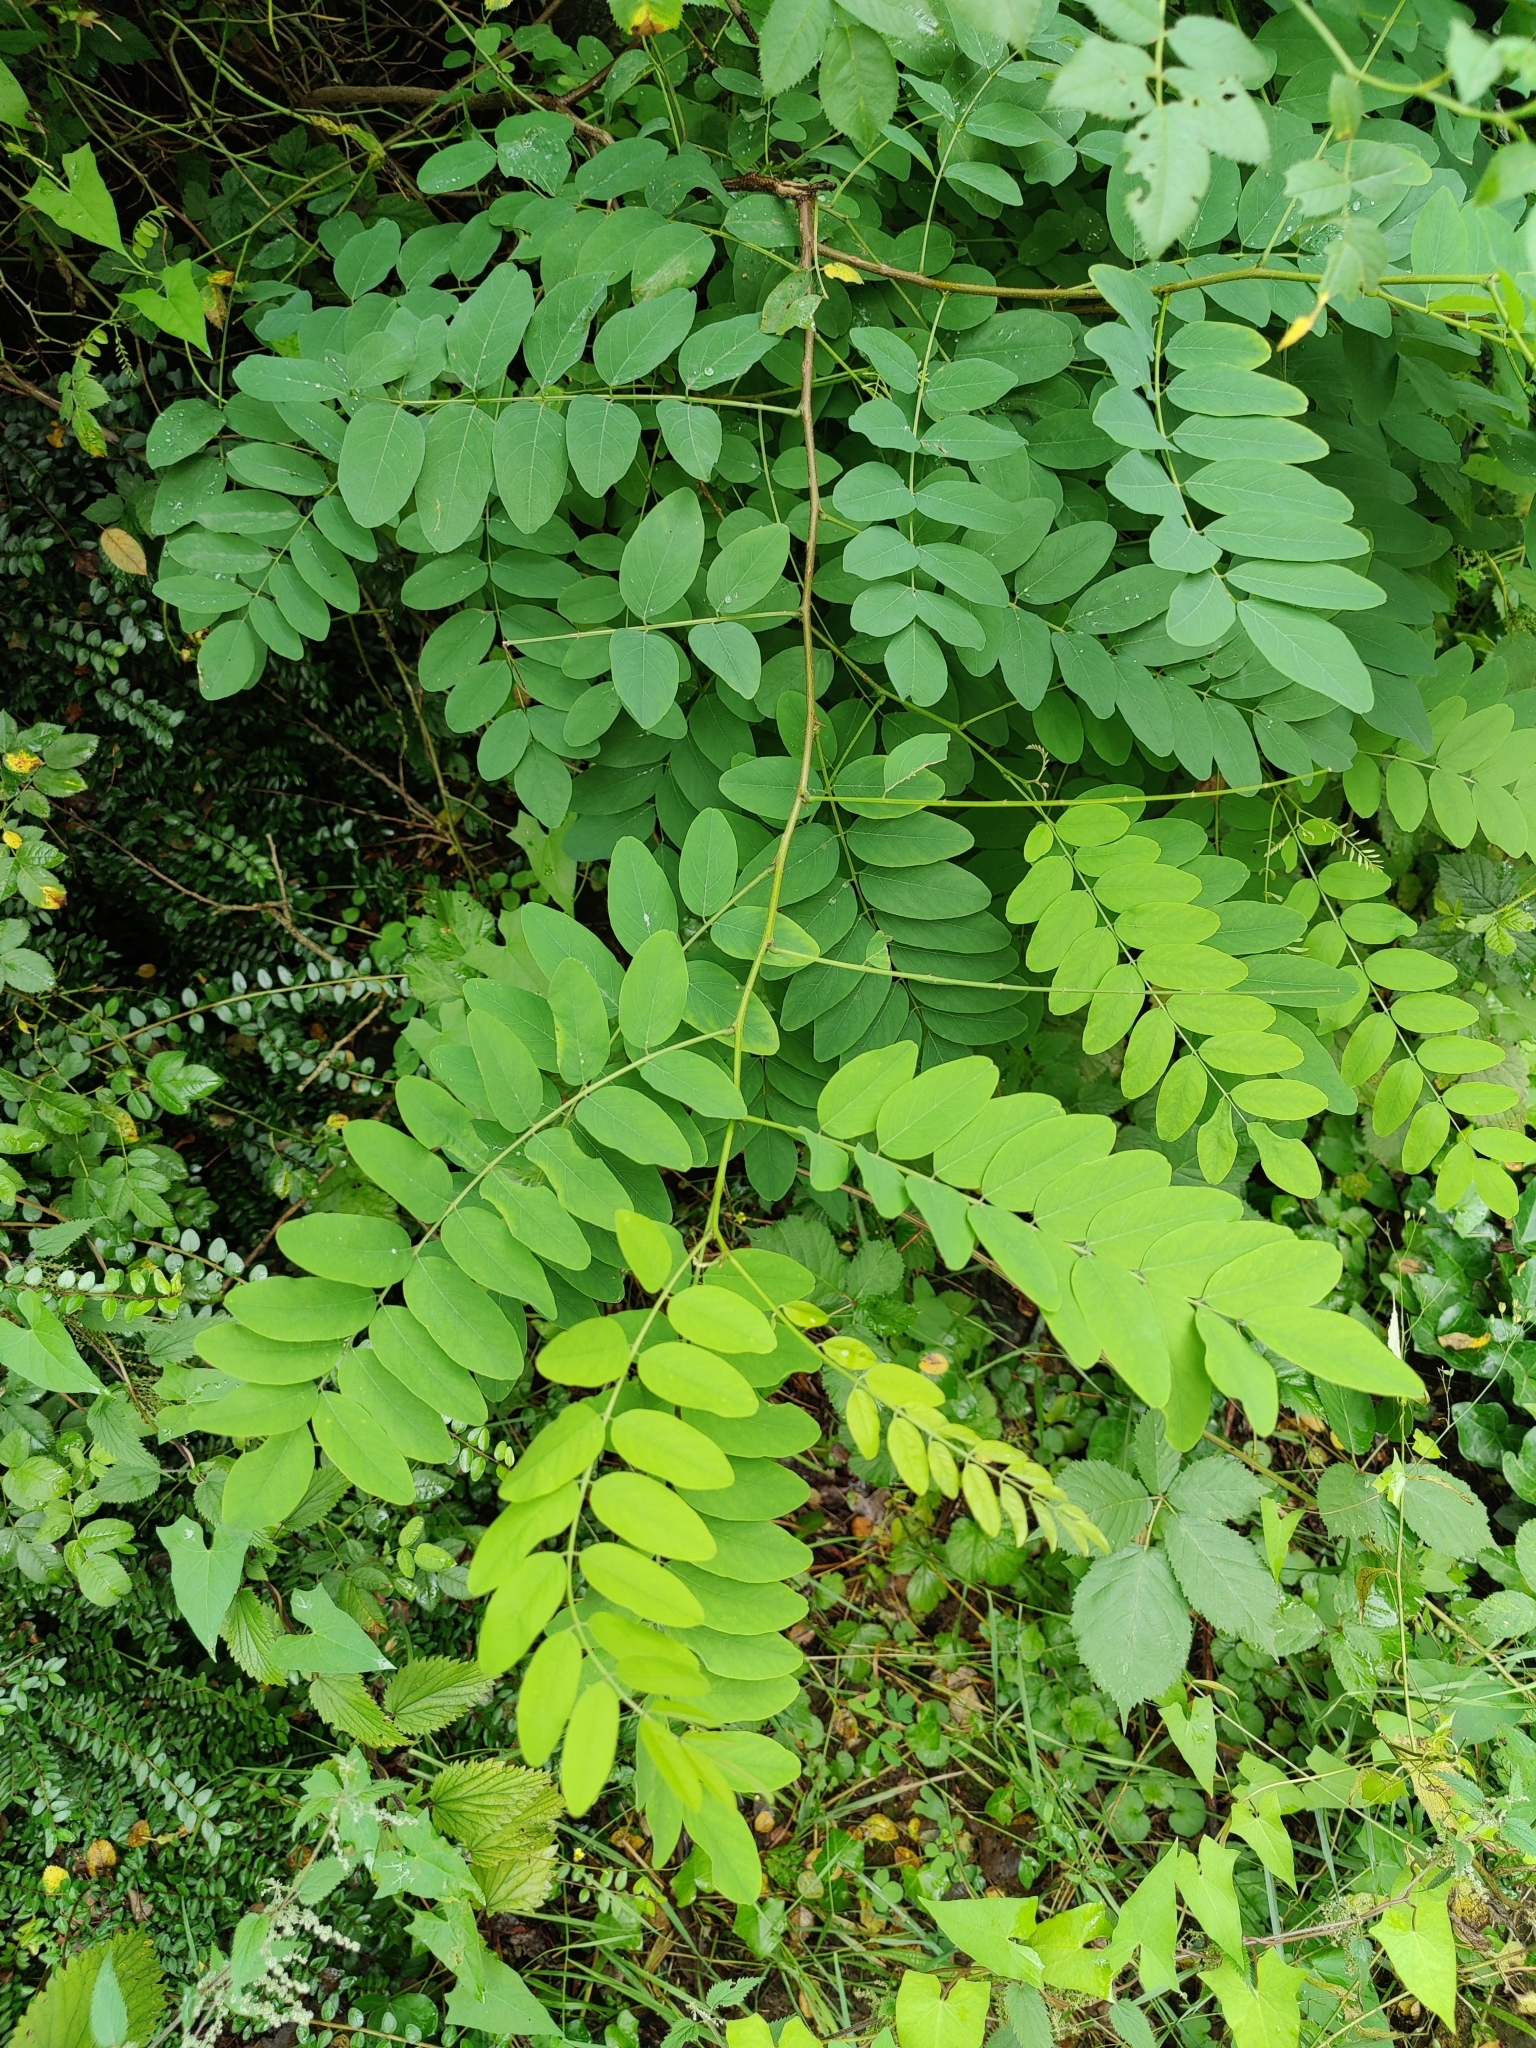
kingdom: Plantae
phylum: Tracheophyta
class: Magnoliopsida
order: Fabales
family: Fabaceae
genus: Robinia
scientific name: Robinia pseudoacacia
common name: Black locust
